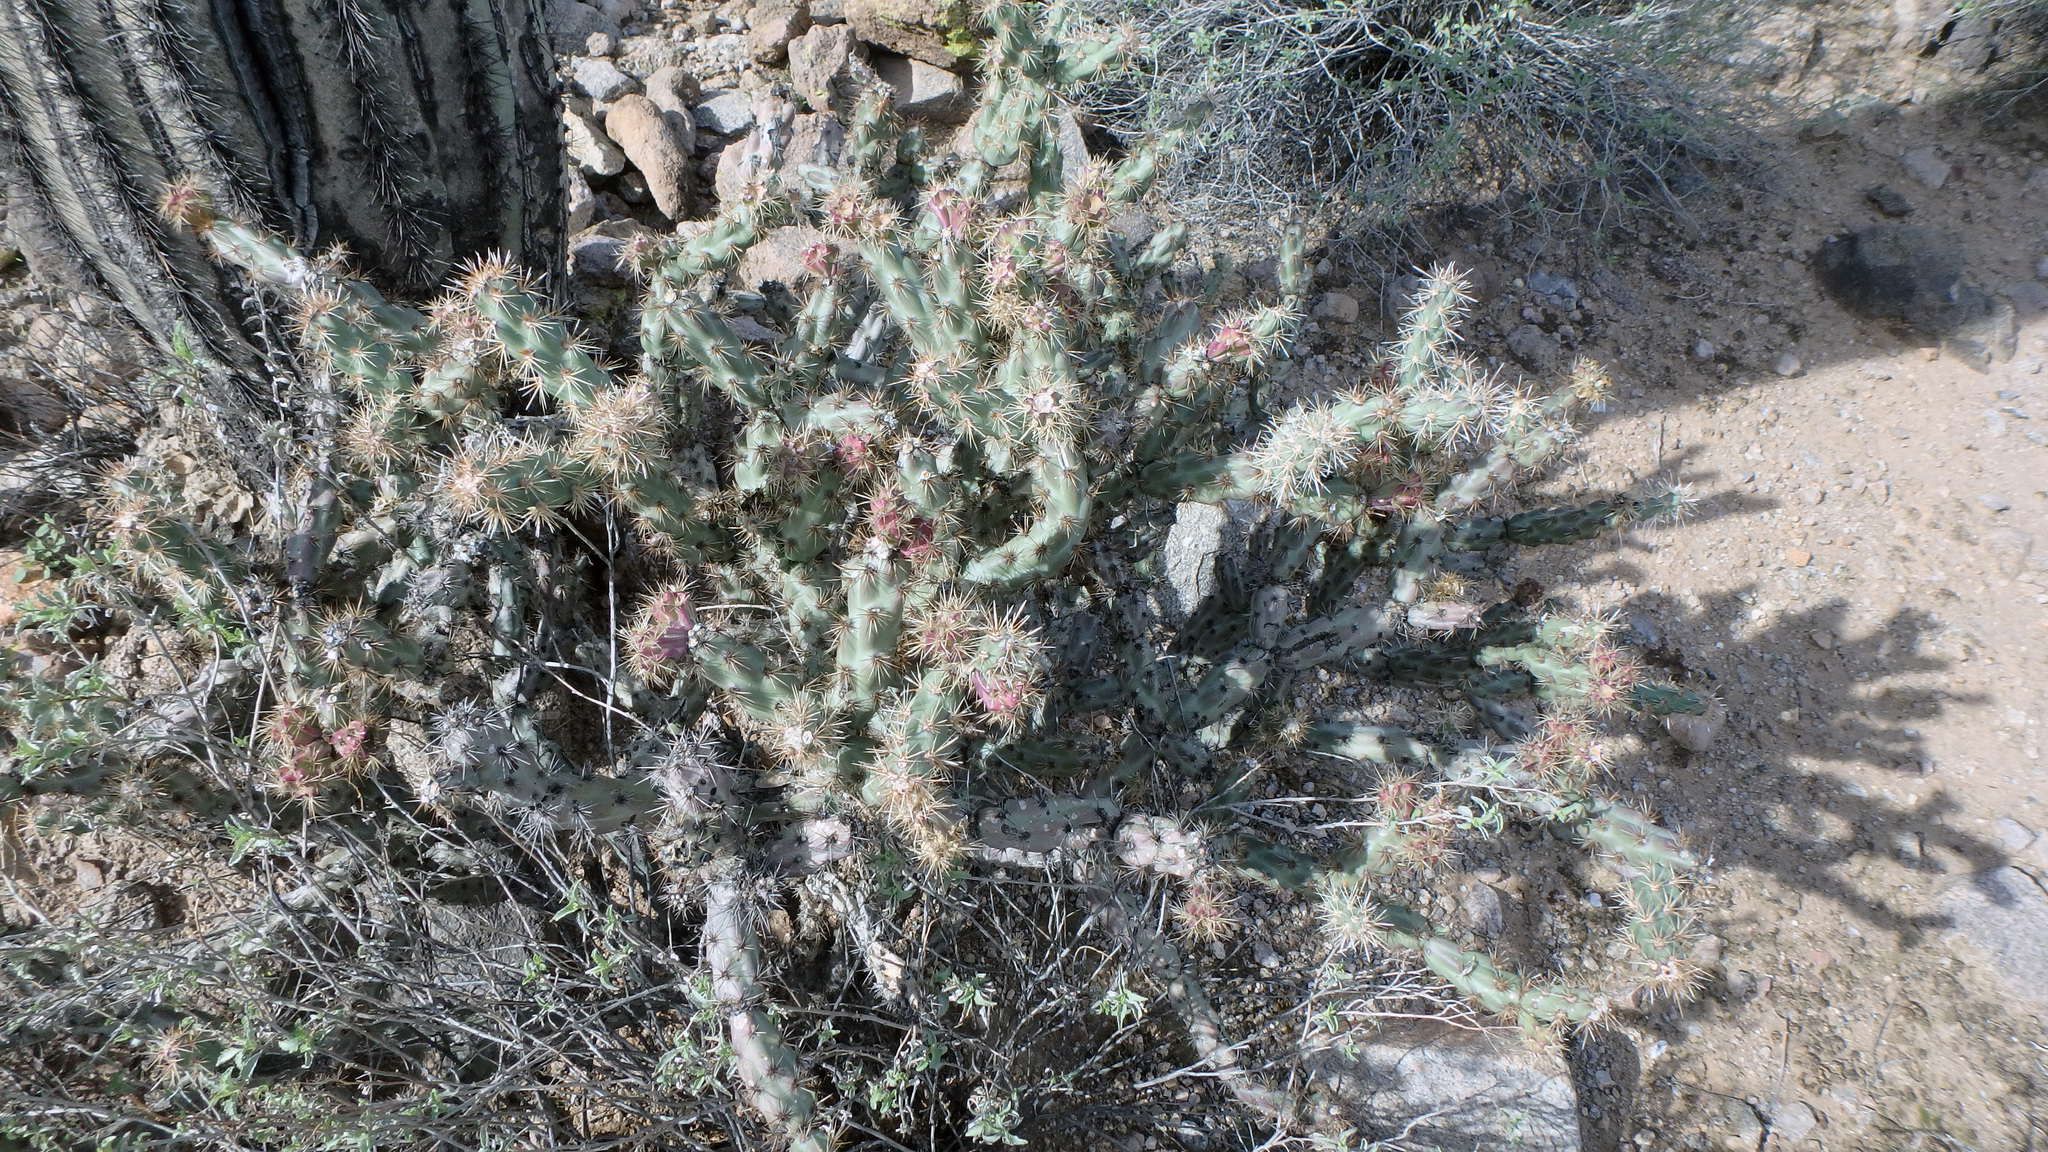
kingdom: Plantae
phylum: Tracheophyta
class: Magnoliopsida
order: Caryophyllales
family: Cactaceae
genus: Cylindropuntia
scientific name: Cylindropuntia acanthocarpa
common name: Buckhorn cholla
